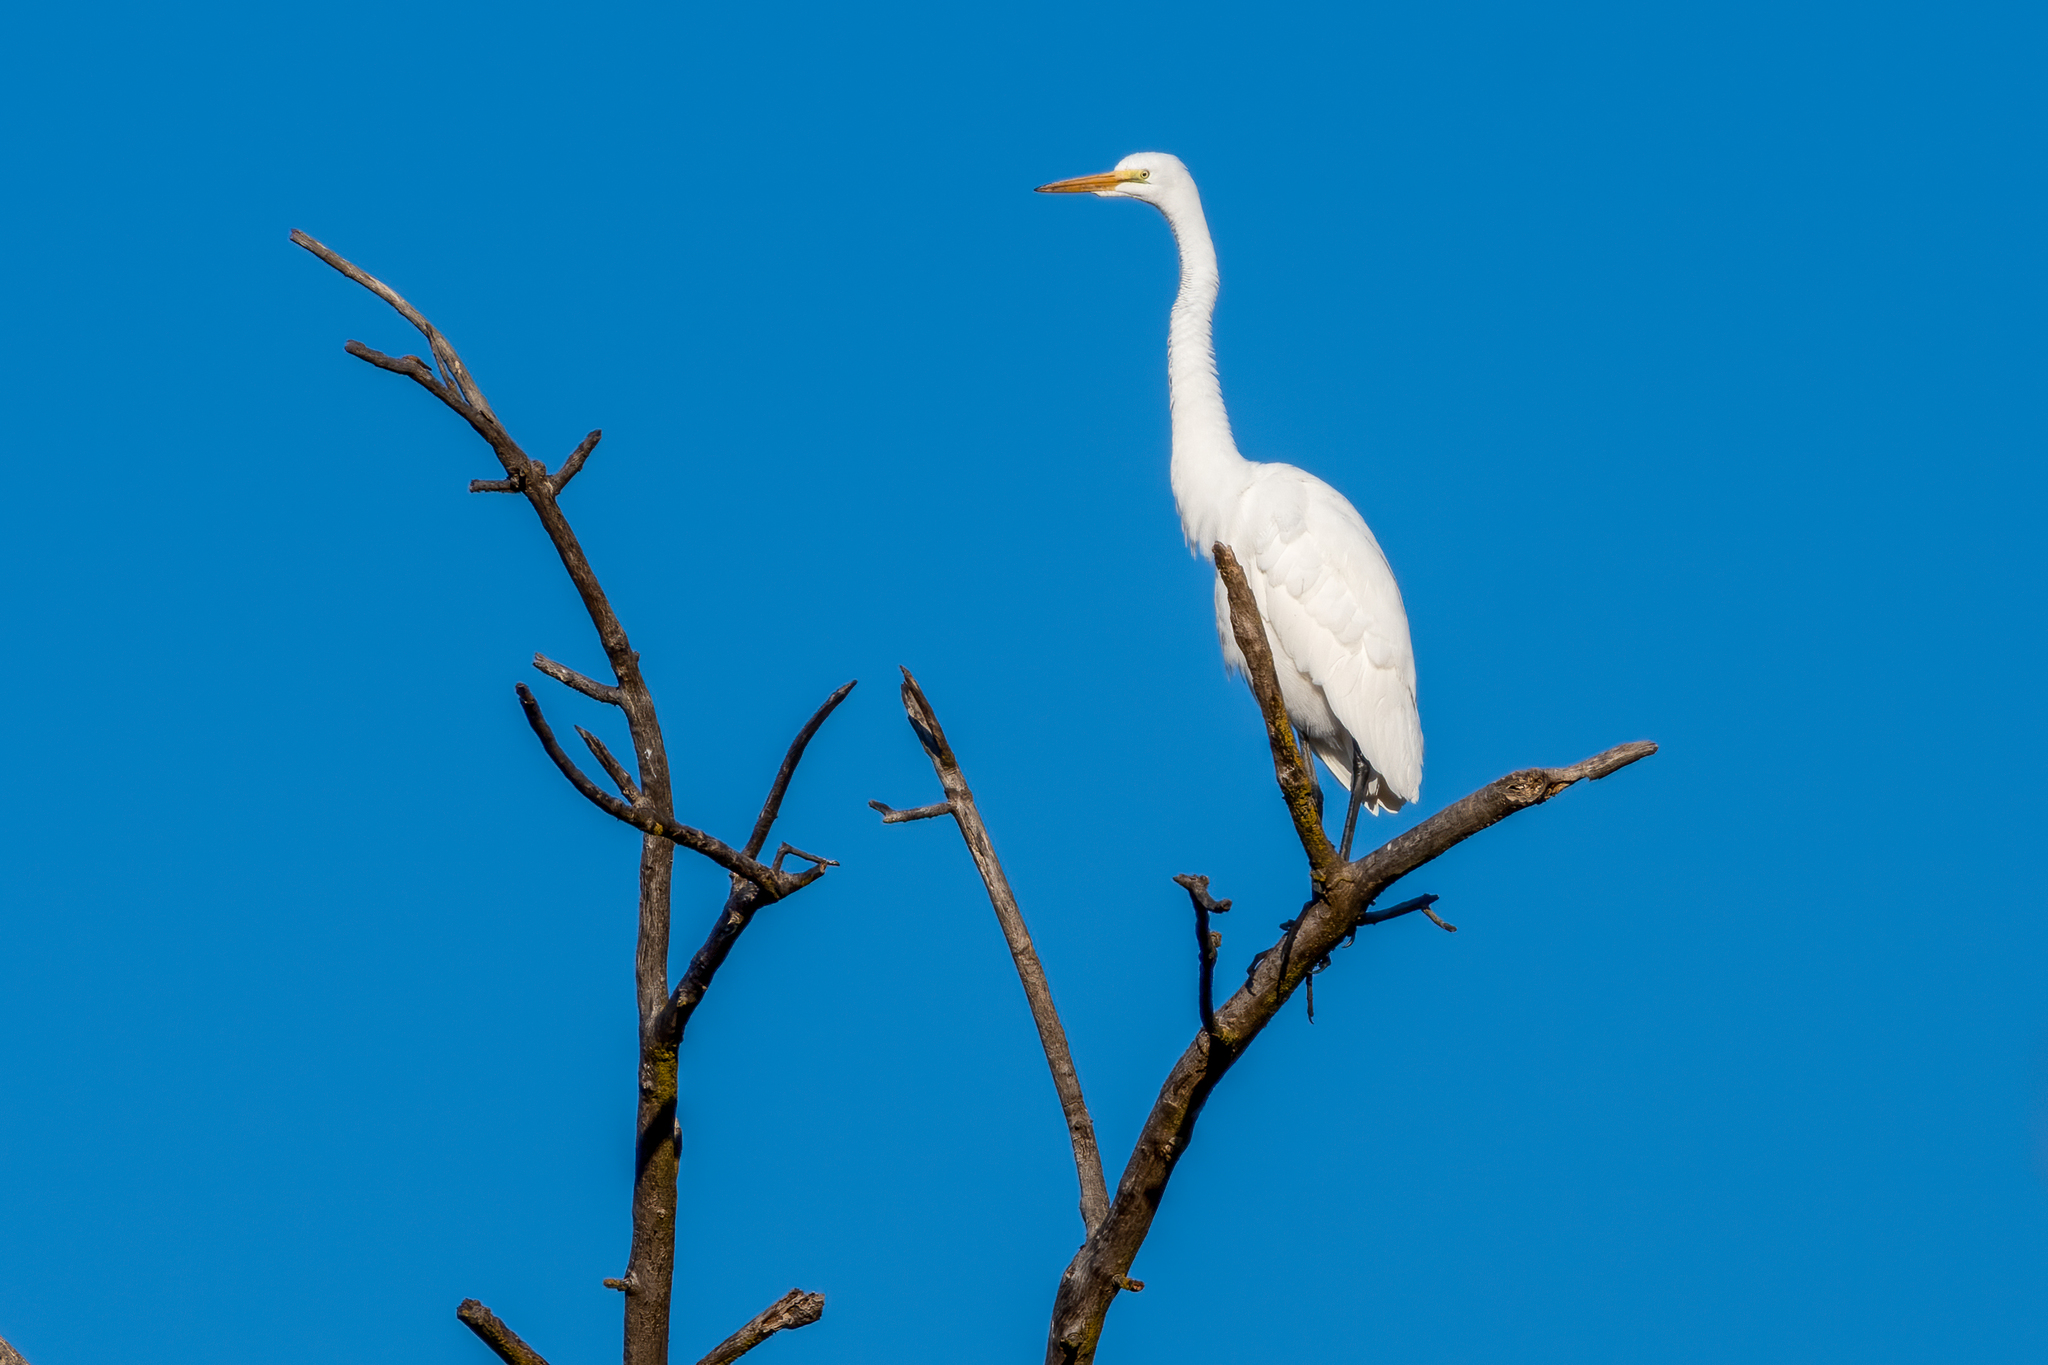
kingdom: Animalia
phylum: Chordata
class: Aves
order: Pelecaniformes
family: Ardeidae
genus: Ardea
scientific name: Ardea alba
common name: Great egret
